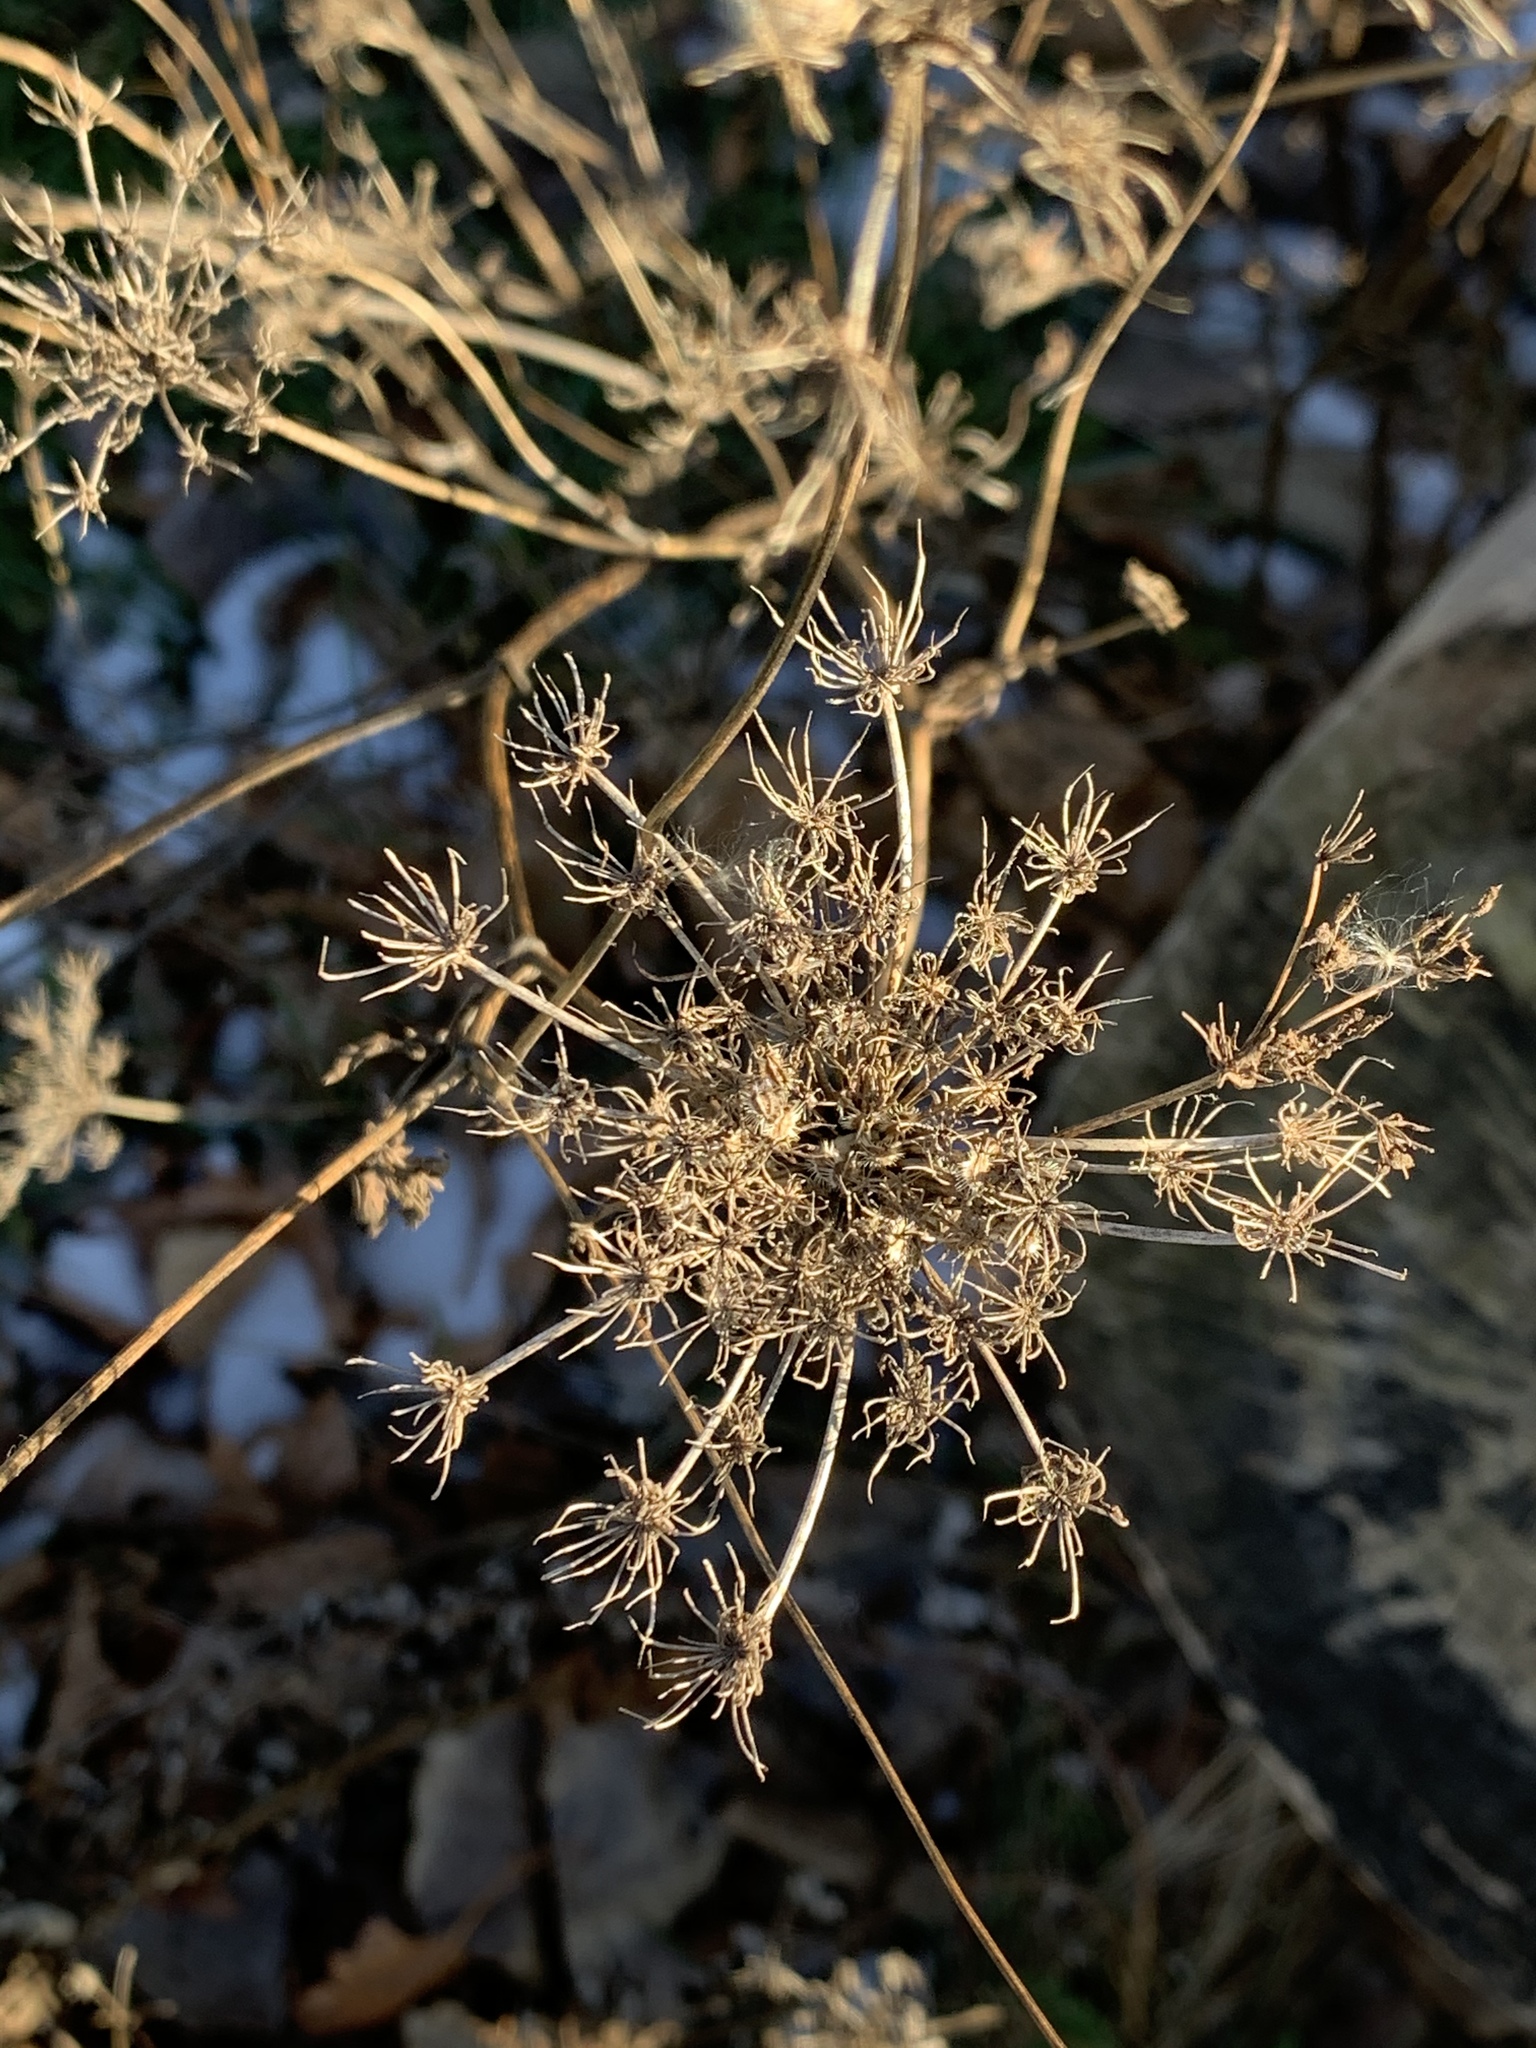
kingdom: Plantae
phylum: Tracheophyta
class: Magnoliopsida
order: Apiales
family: Apiaceae
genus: Daucus
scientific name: Daucus carota
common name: Wild carrot
